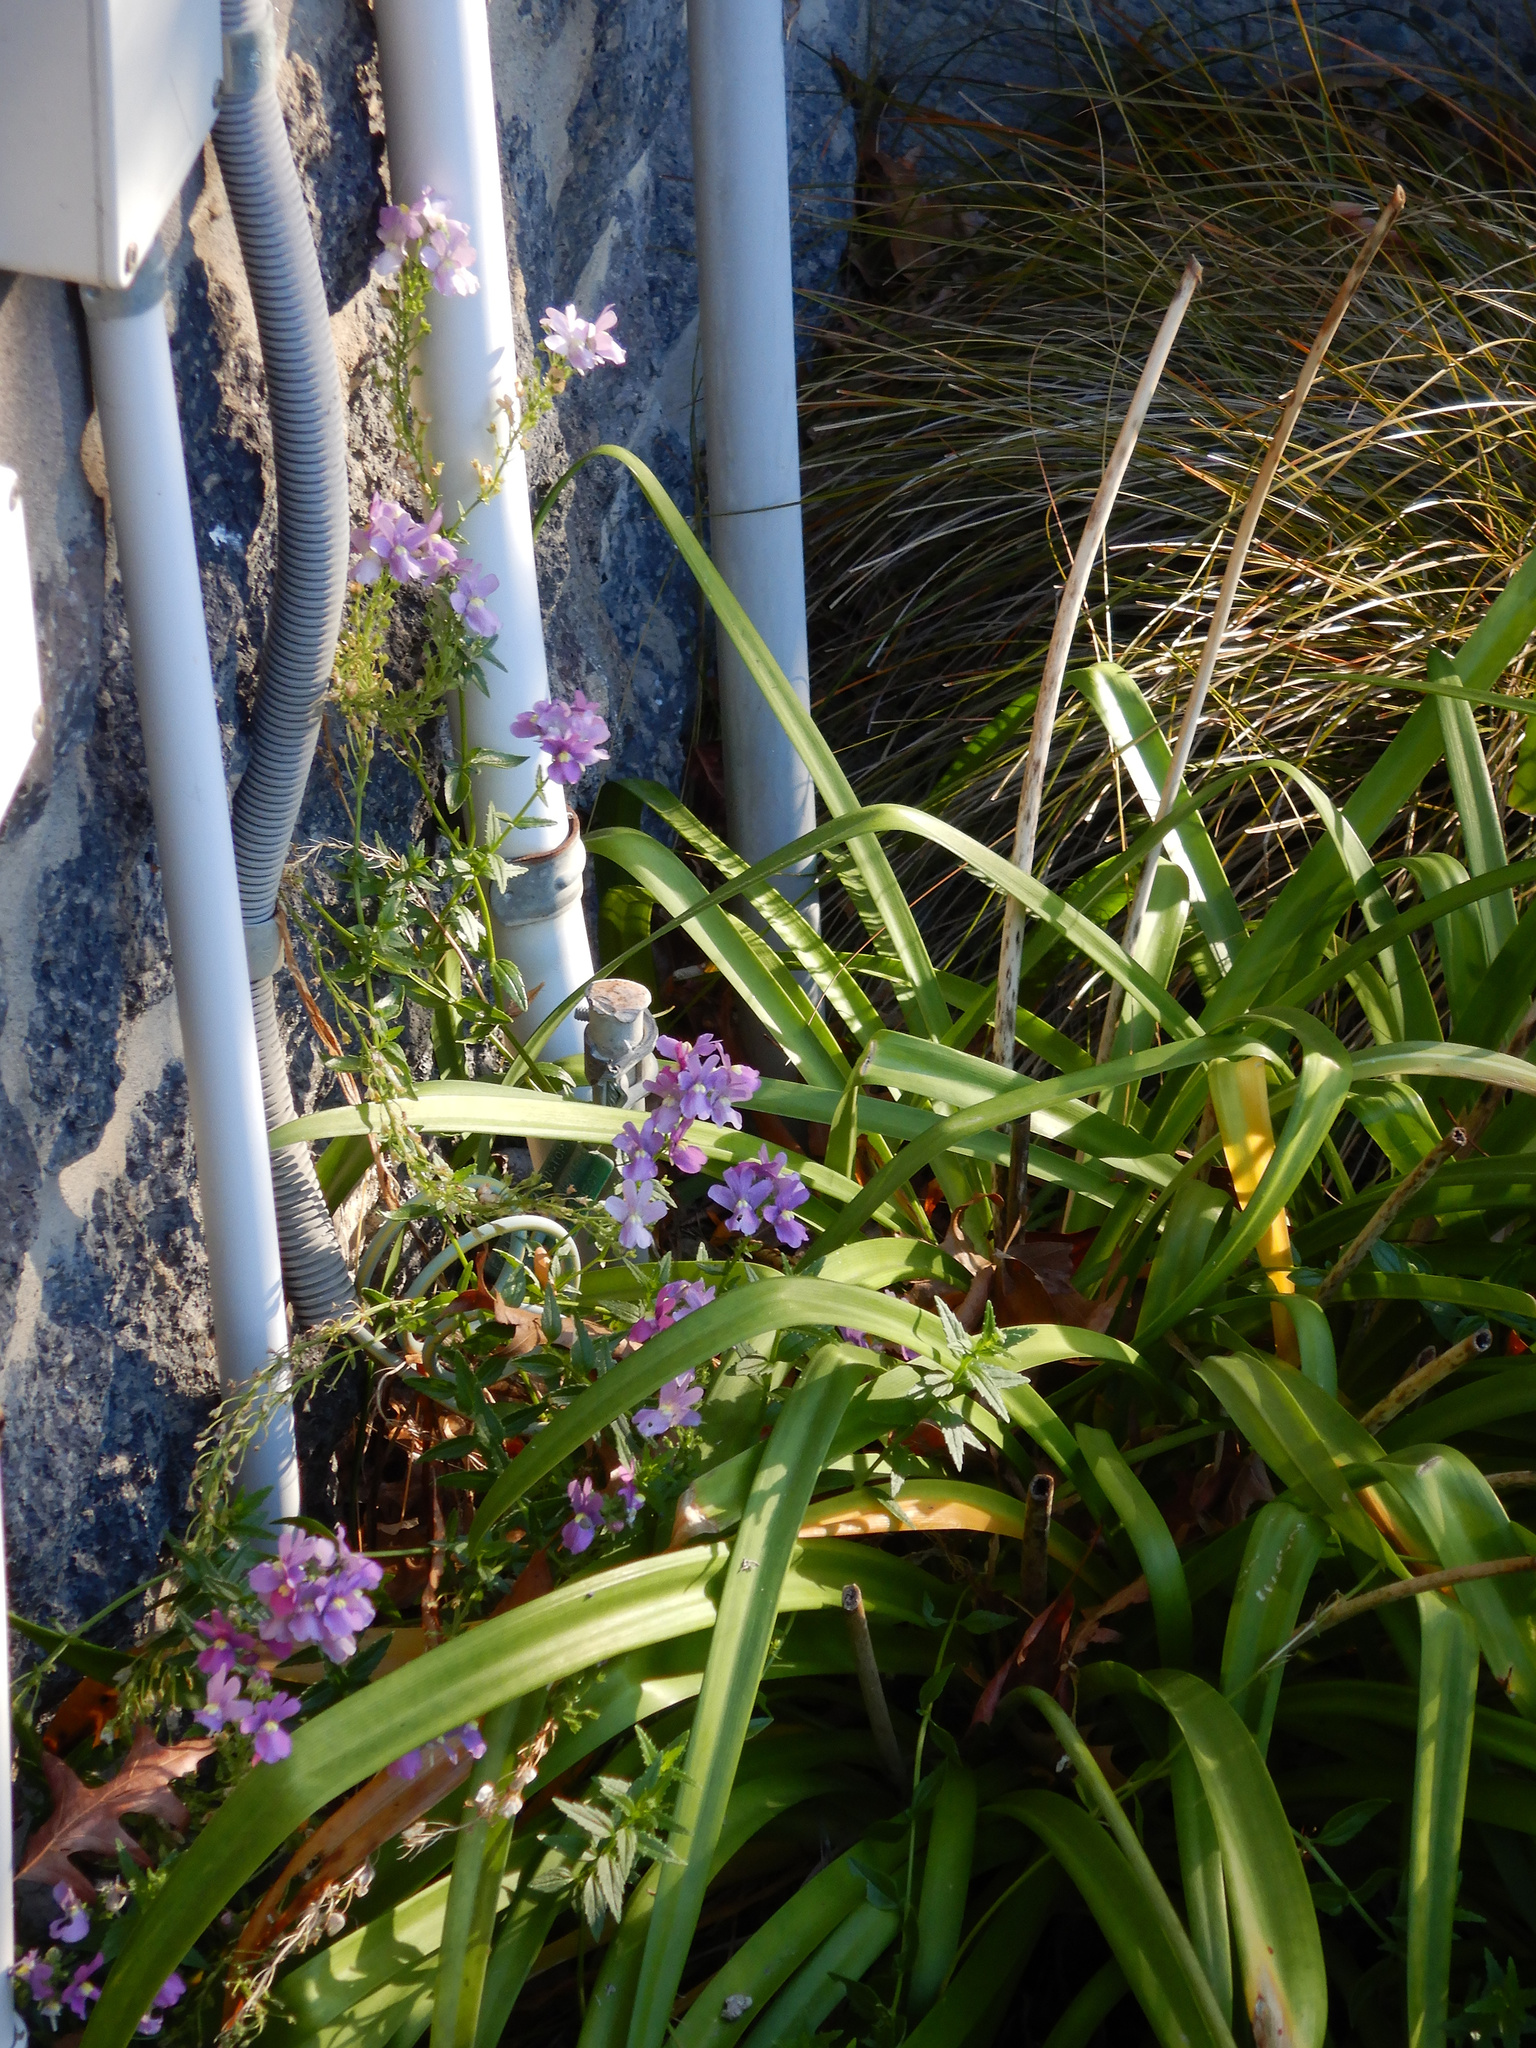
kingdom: Plantae
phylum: Tracheophyta
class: Magnoliopsida
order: Lamiales
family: Scrophulariaceae
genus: Nemesia
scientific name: Nemesia fruticans
